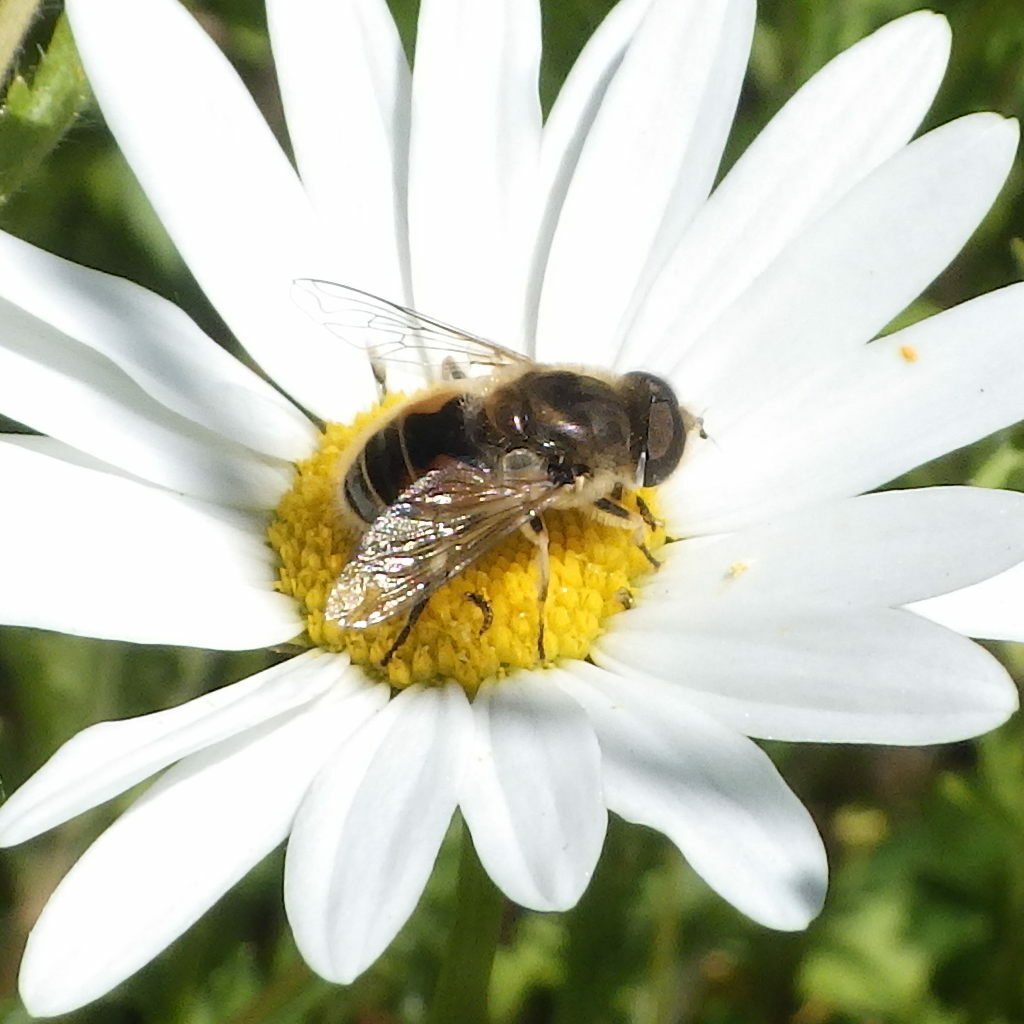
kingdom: Animalia
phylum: Arthropoda
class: Insecta
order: Diptera
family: Syrphidae
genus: Eristalis
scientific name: Eristalis arbustorum
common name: Hover fly
